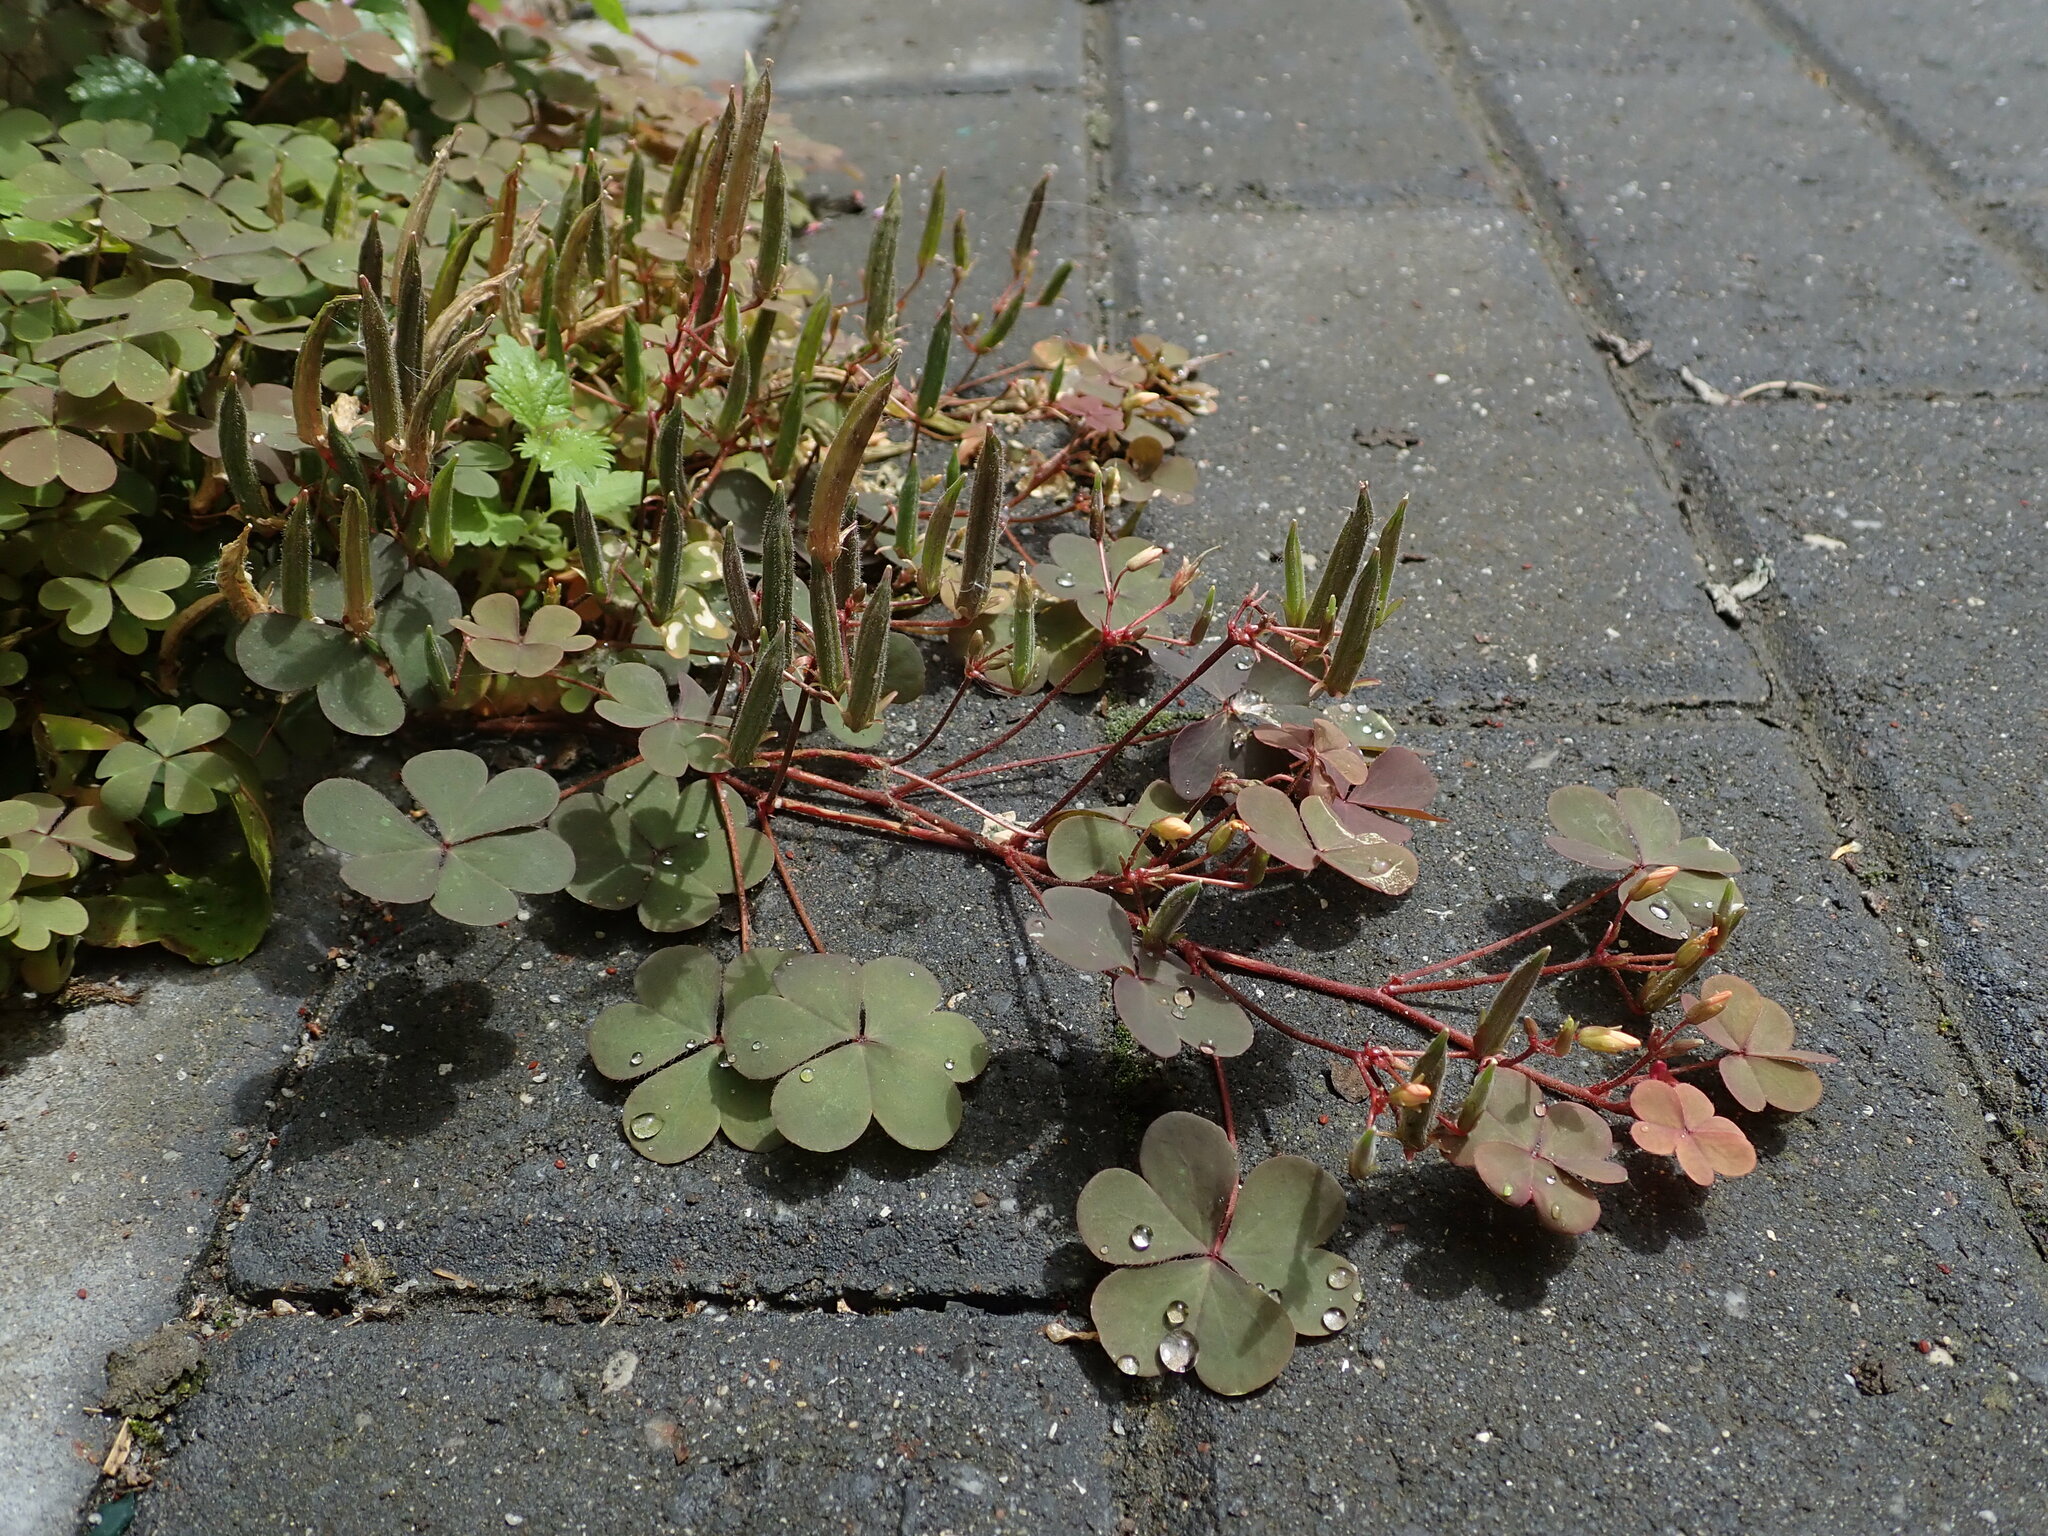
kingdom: Plantae
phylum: Tracheophyta
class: Magnoliopsida
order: Oxalidales
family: Oxalidaceae
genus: Oxalis
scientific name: Oxalis corniculata
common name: Procumbent yellow-sorrel
